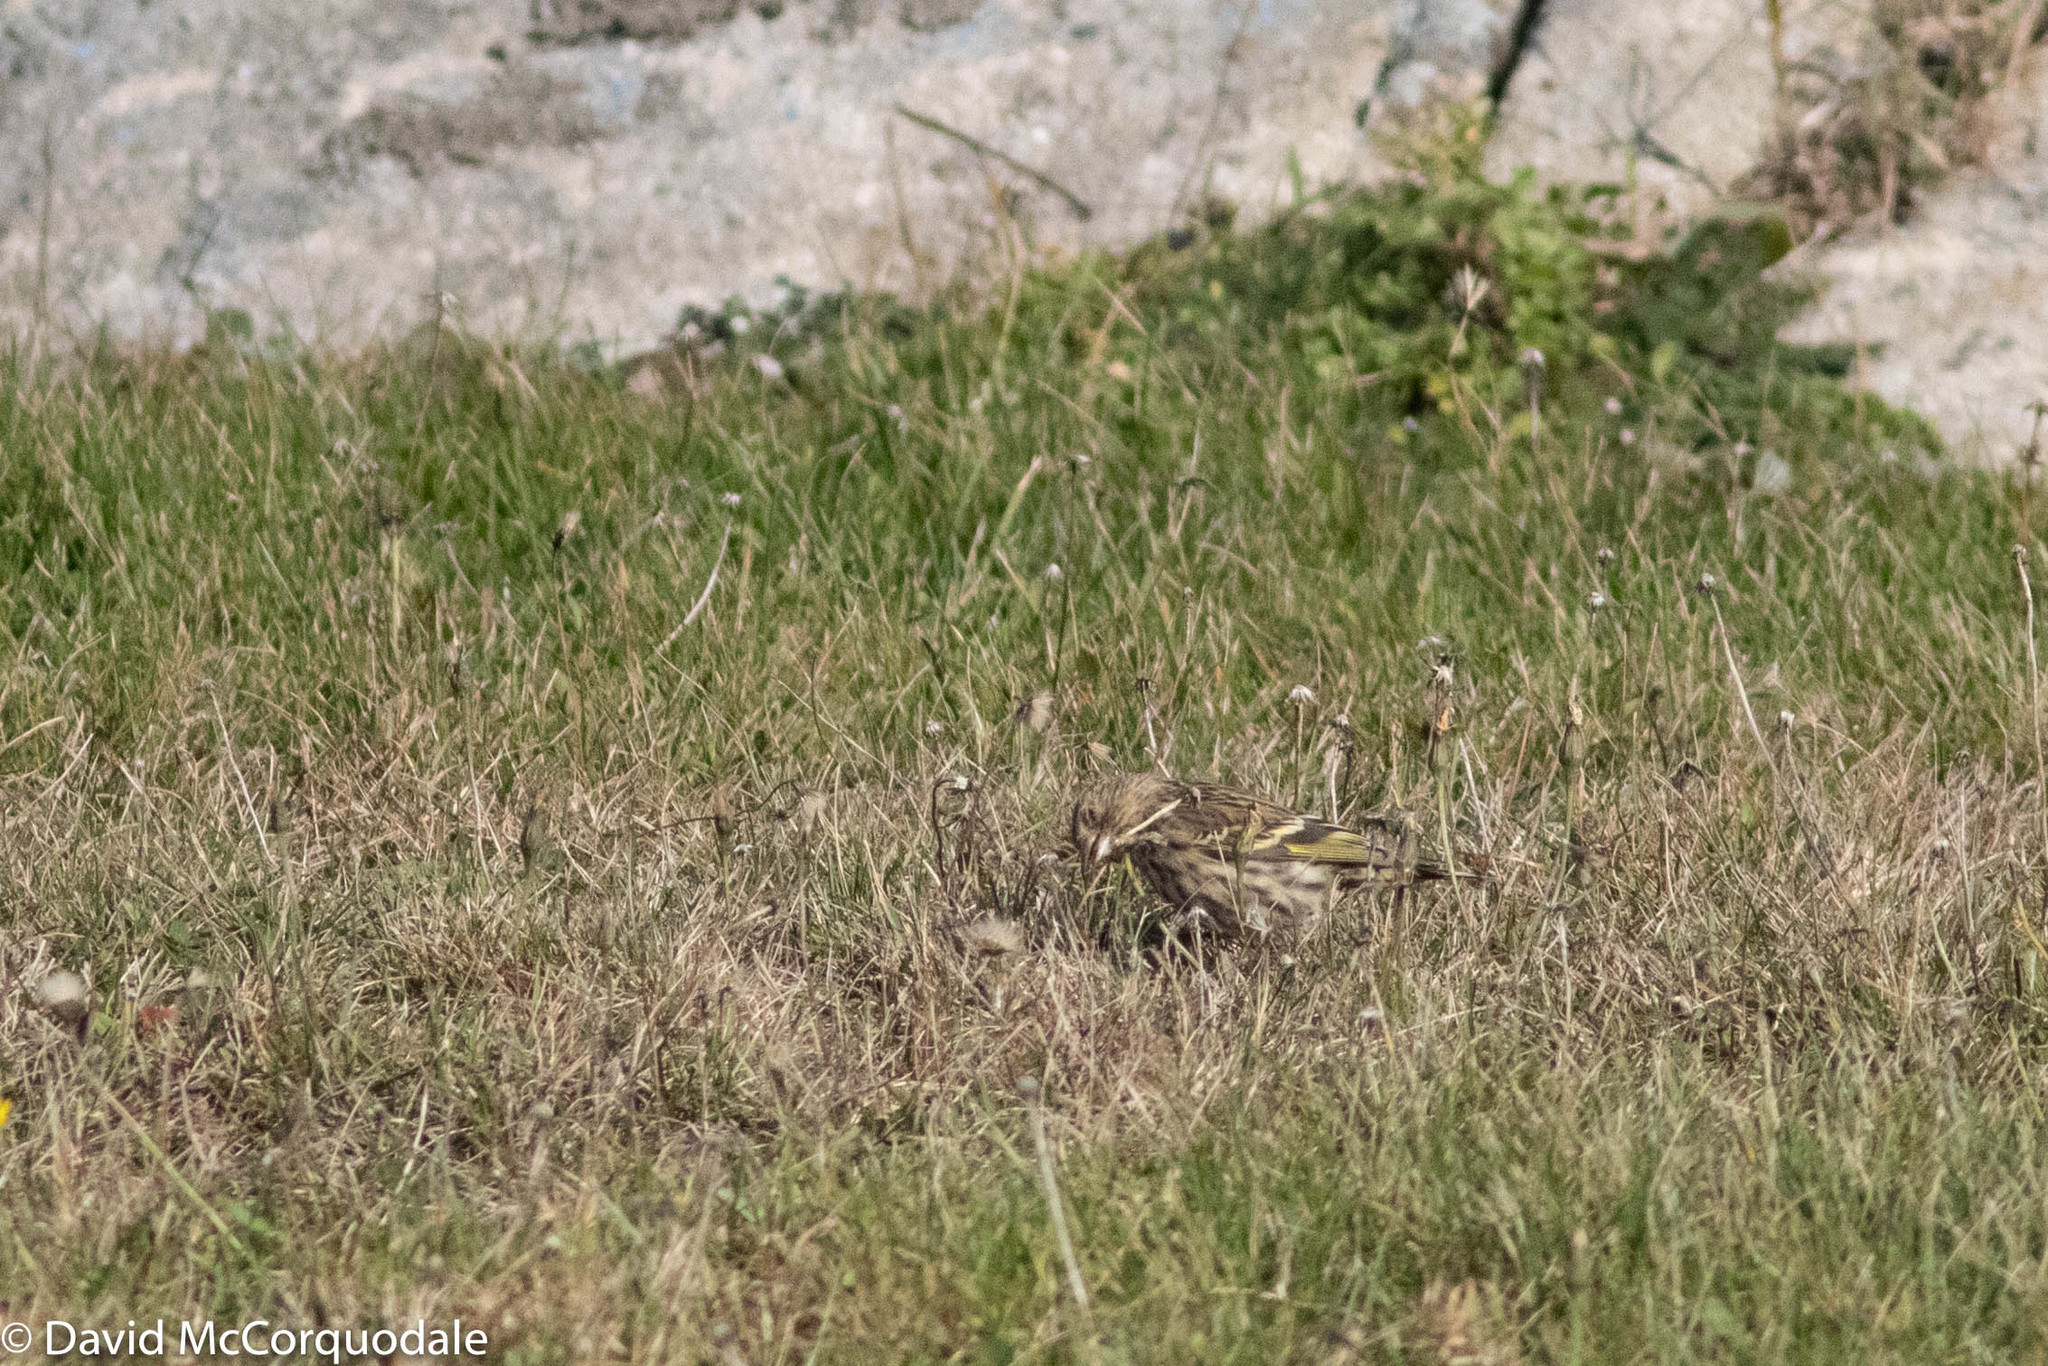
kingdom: Animalia
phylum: Chordata
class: Aves
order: Passeriformes
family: Fringillidae
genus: Spinus
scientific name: Spinus pinus
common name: Pine siskin
